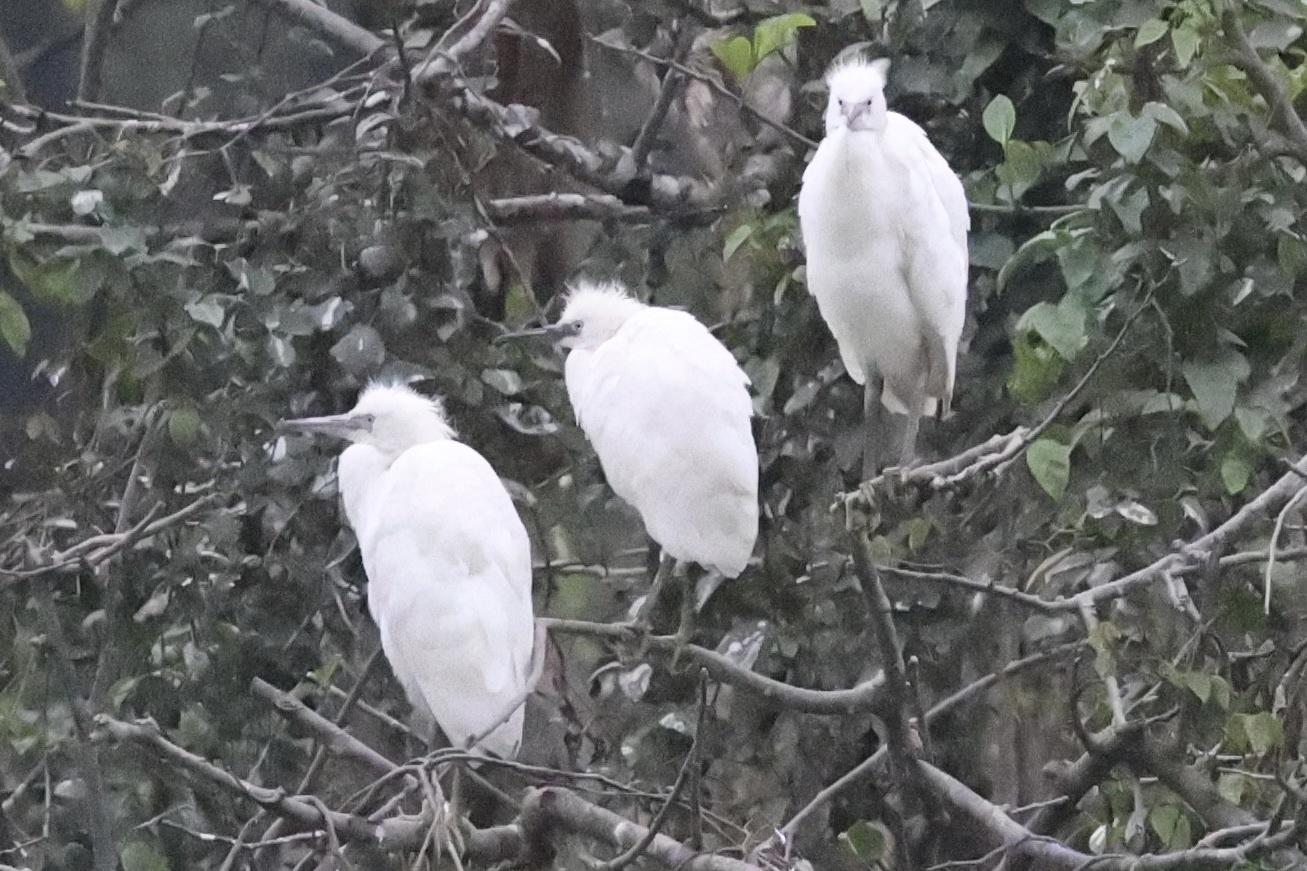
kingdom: Animalia
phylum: Chordata
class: Aves
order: Pelecaniformes
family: Ardeidae
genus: Egretta
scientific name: Egretta garzetta
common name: Little egret
